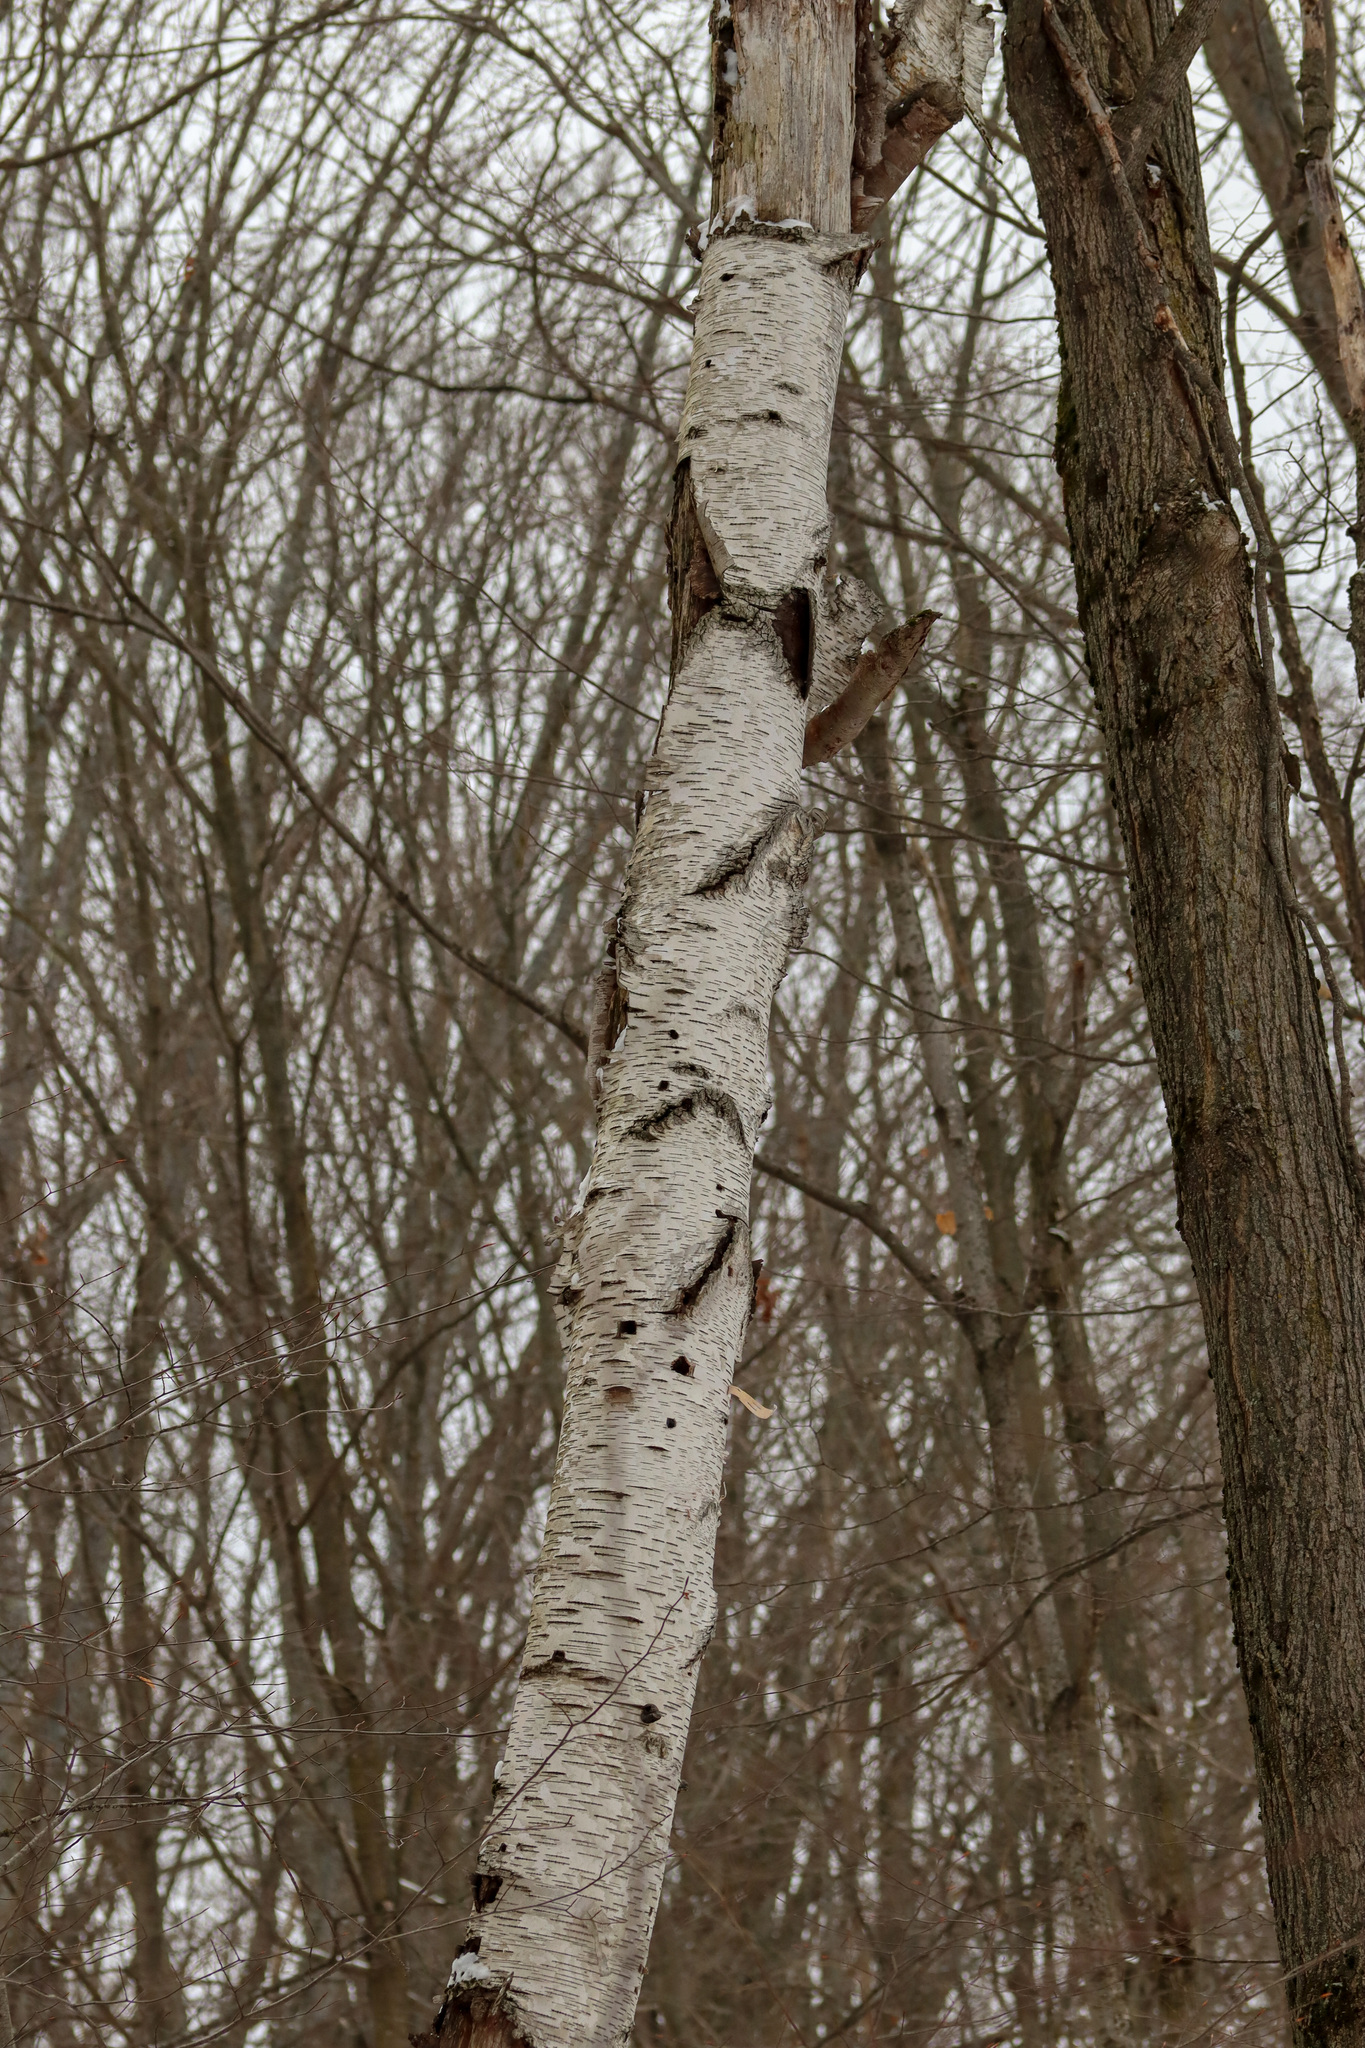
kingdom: Plantae
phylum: Tracheophyta
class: Magnoliopsida
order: Fagales
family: Betulaceae
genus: Betula
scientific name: Betula papyrifera
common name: Paper birch
